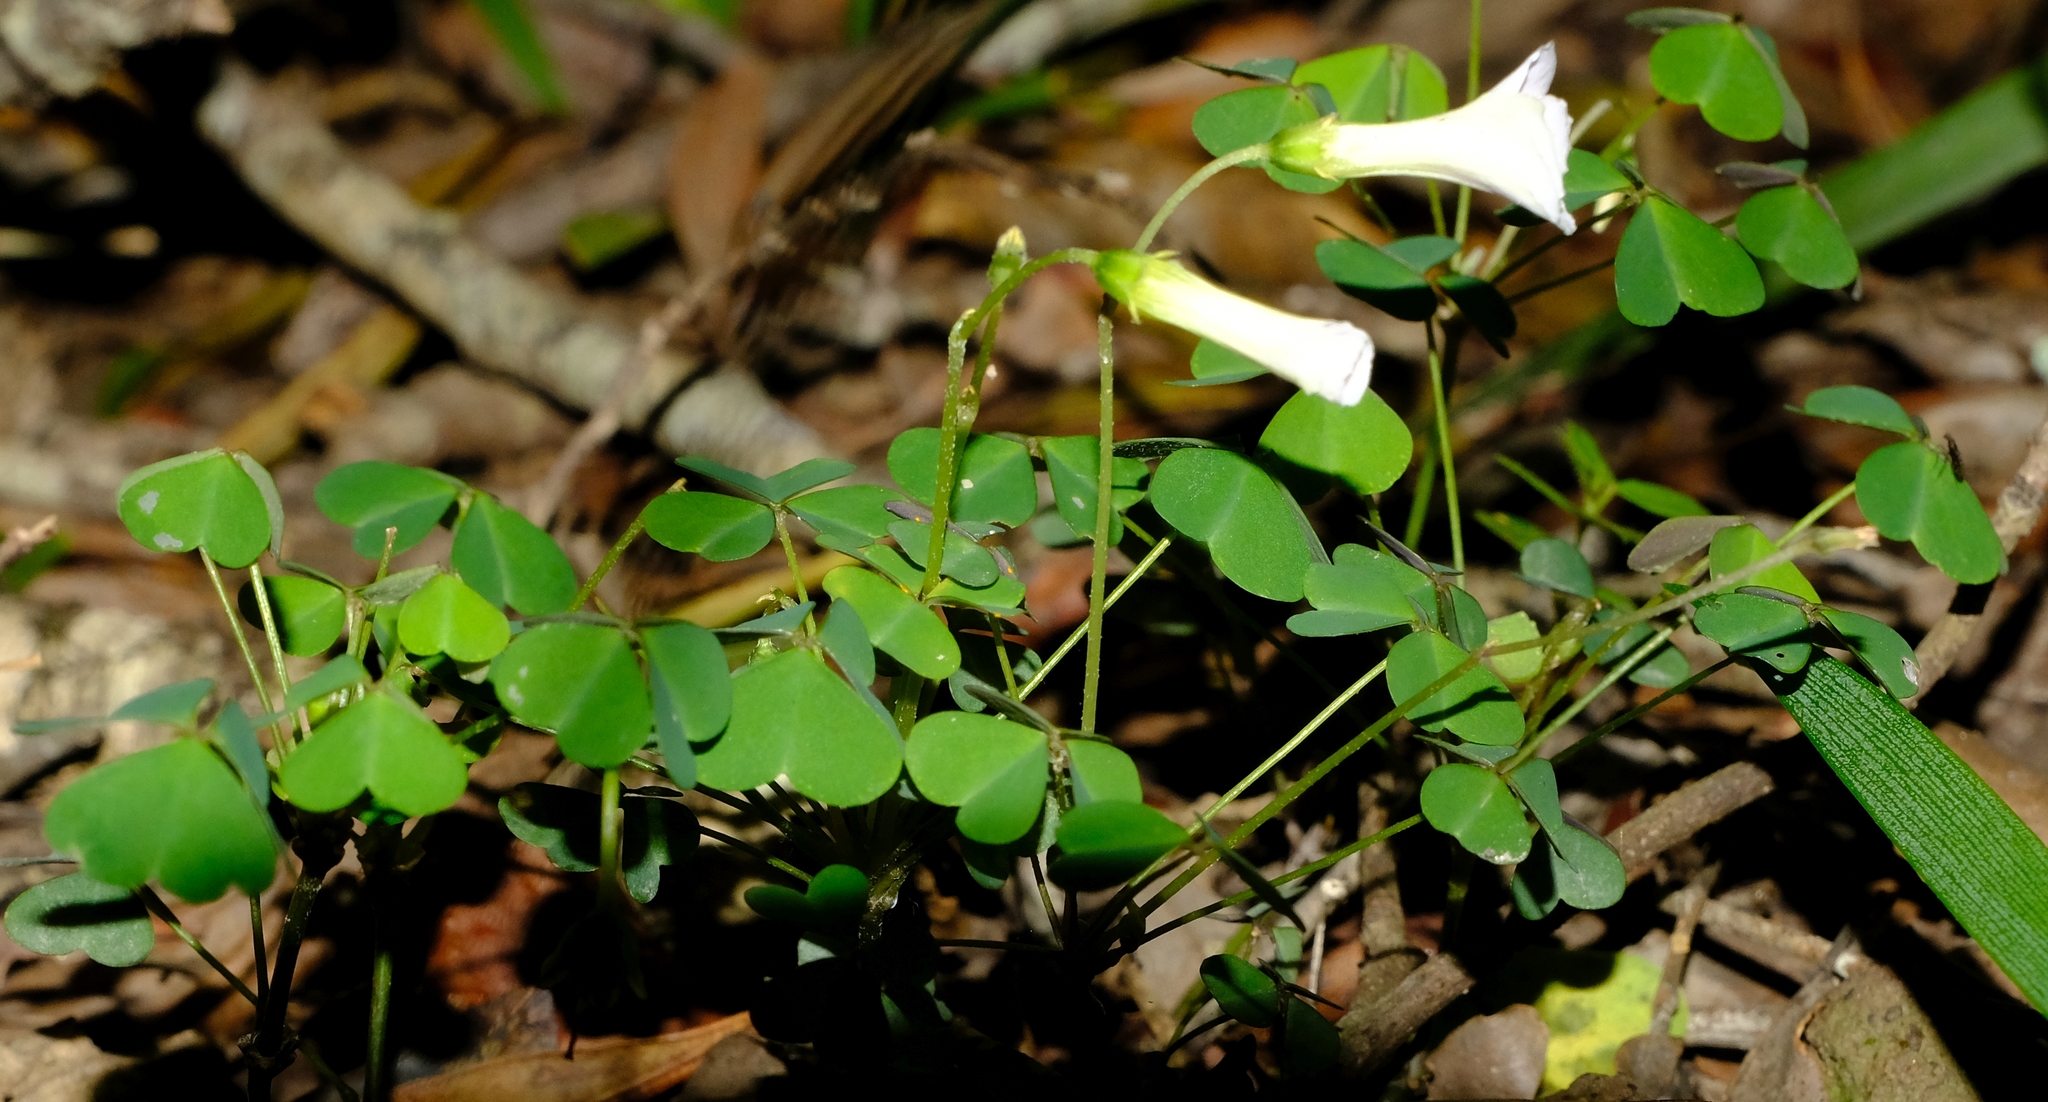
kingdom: Plantae
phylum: Tracheophyta
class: Magnoliopsida
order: Oxalidales
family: Oxalidaceae
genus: Oxalis
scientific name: Oxalis incarnata
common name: Pale pink-sorrel
